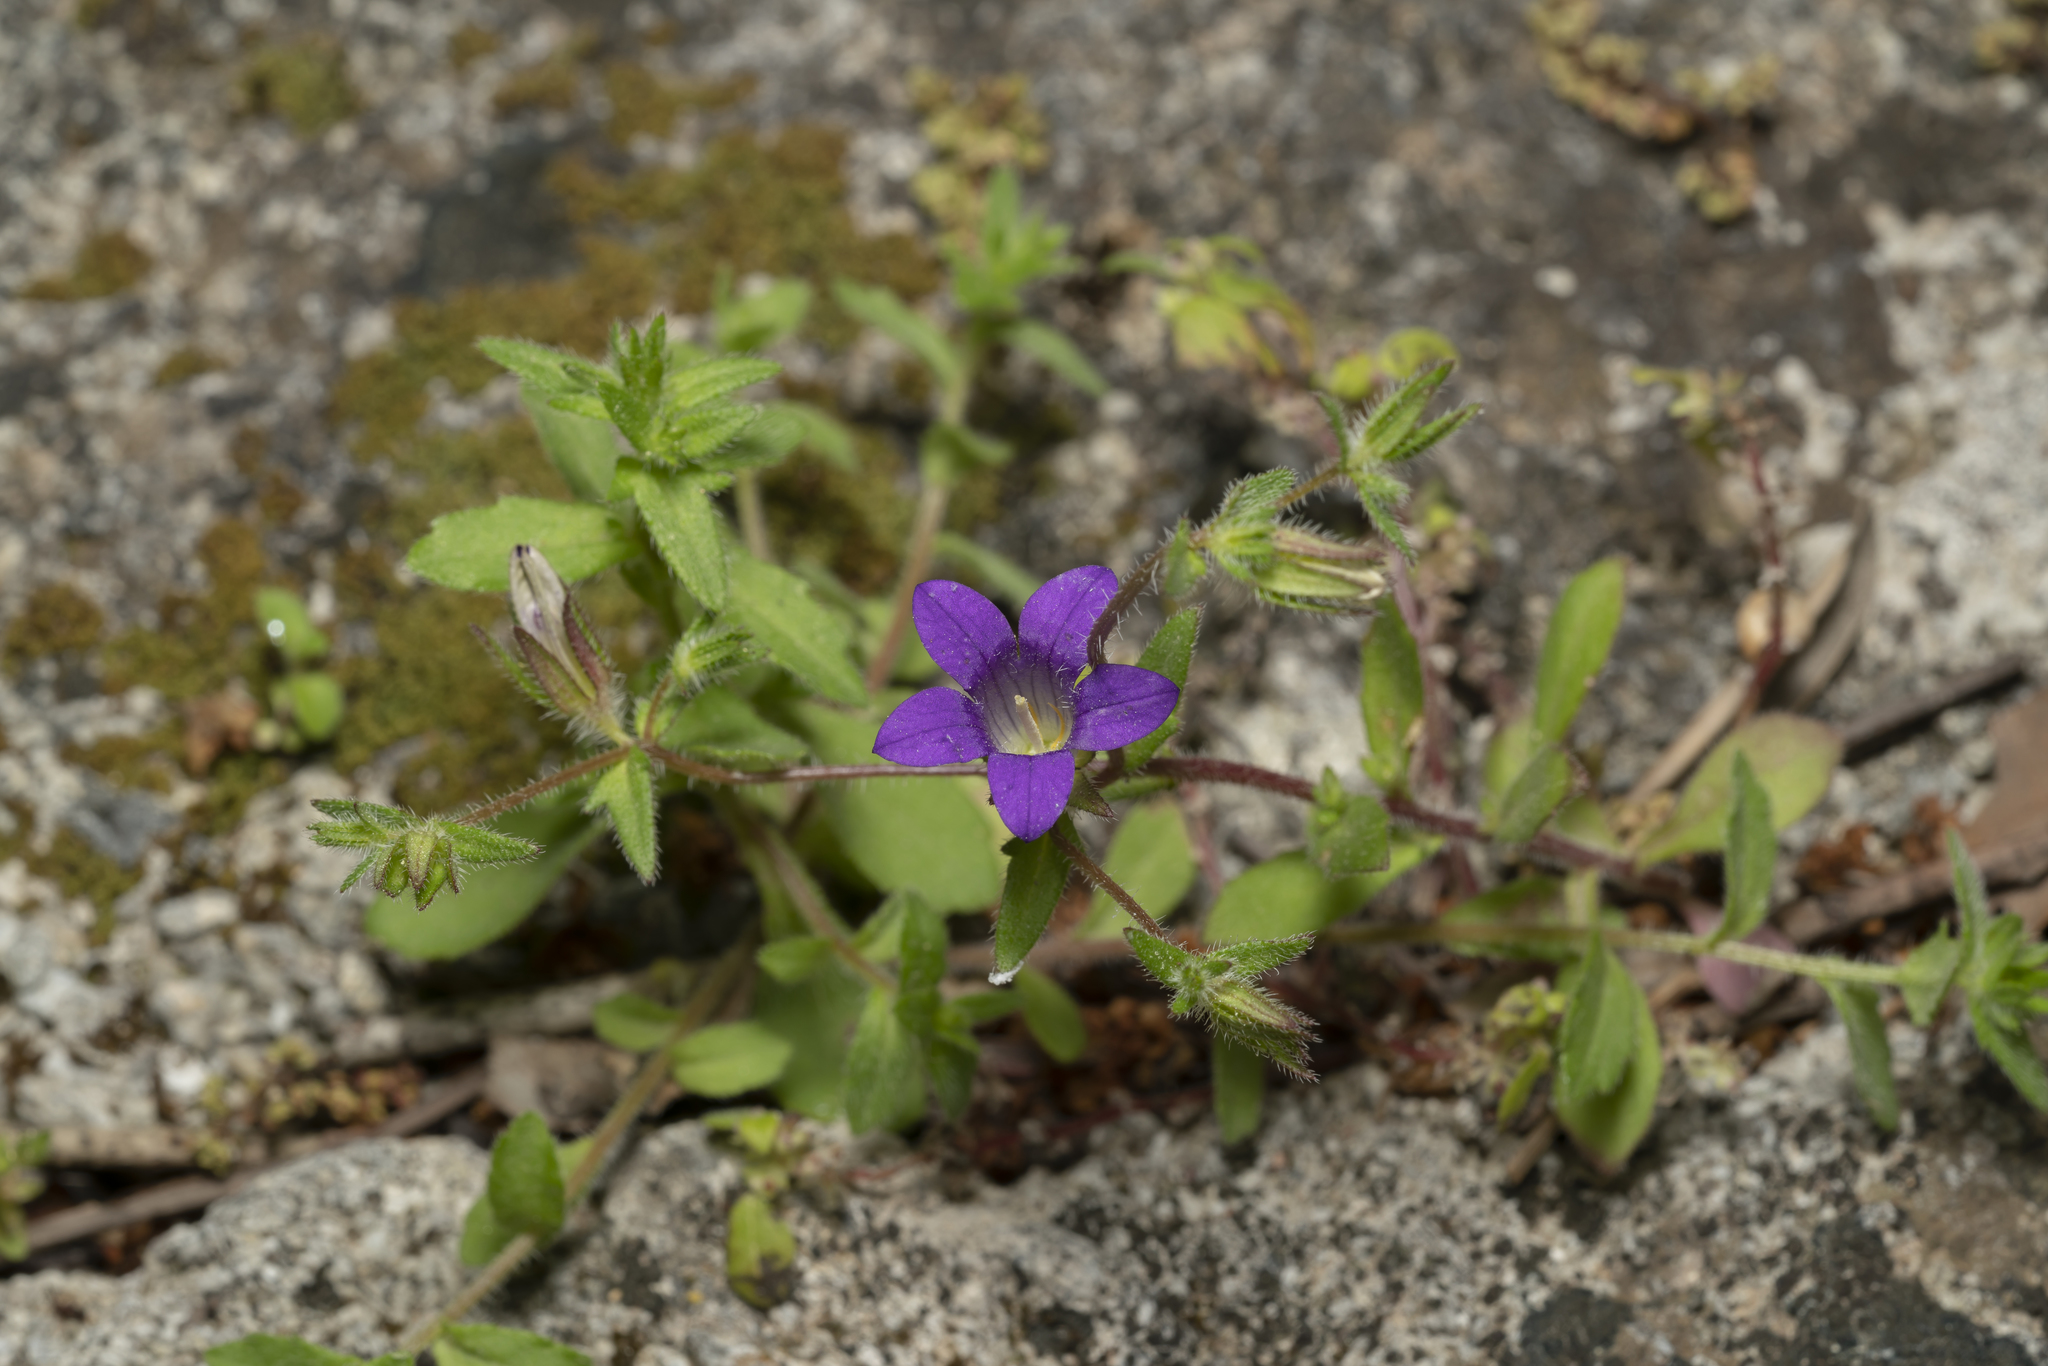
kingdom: Plantae
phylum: Tracheophyta
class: Magnoliopsida
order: Asterales
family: Campanulaceae
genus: Campanula
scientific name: Campanula rhodensis
